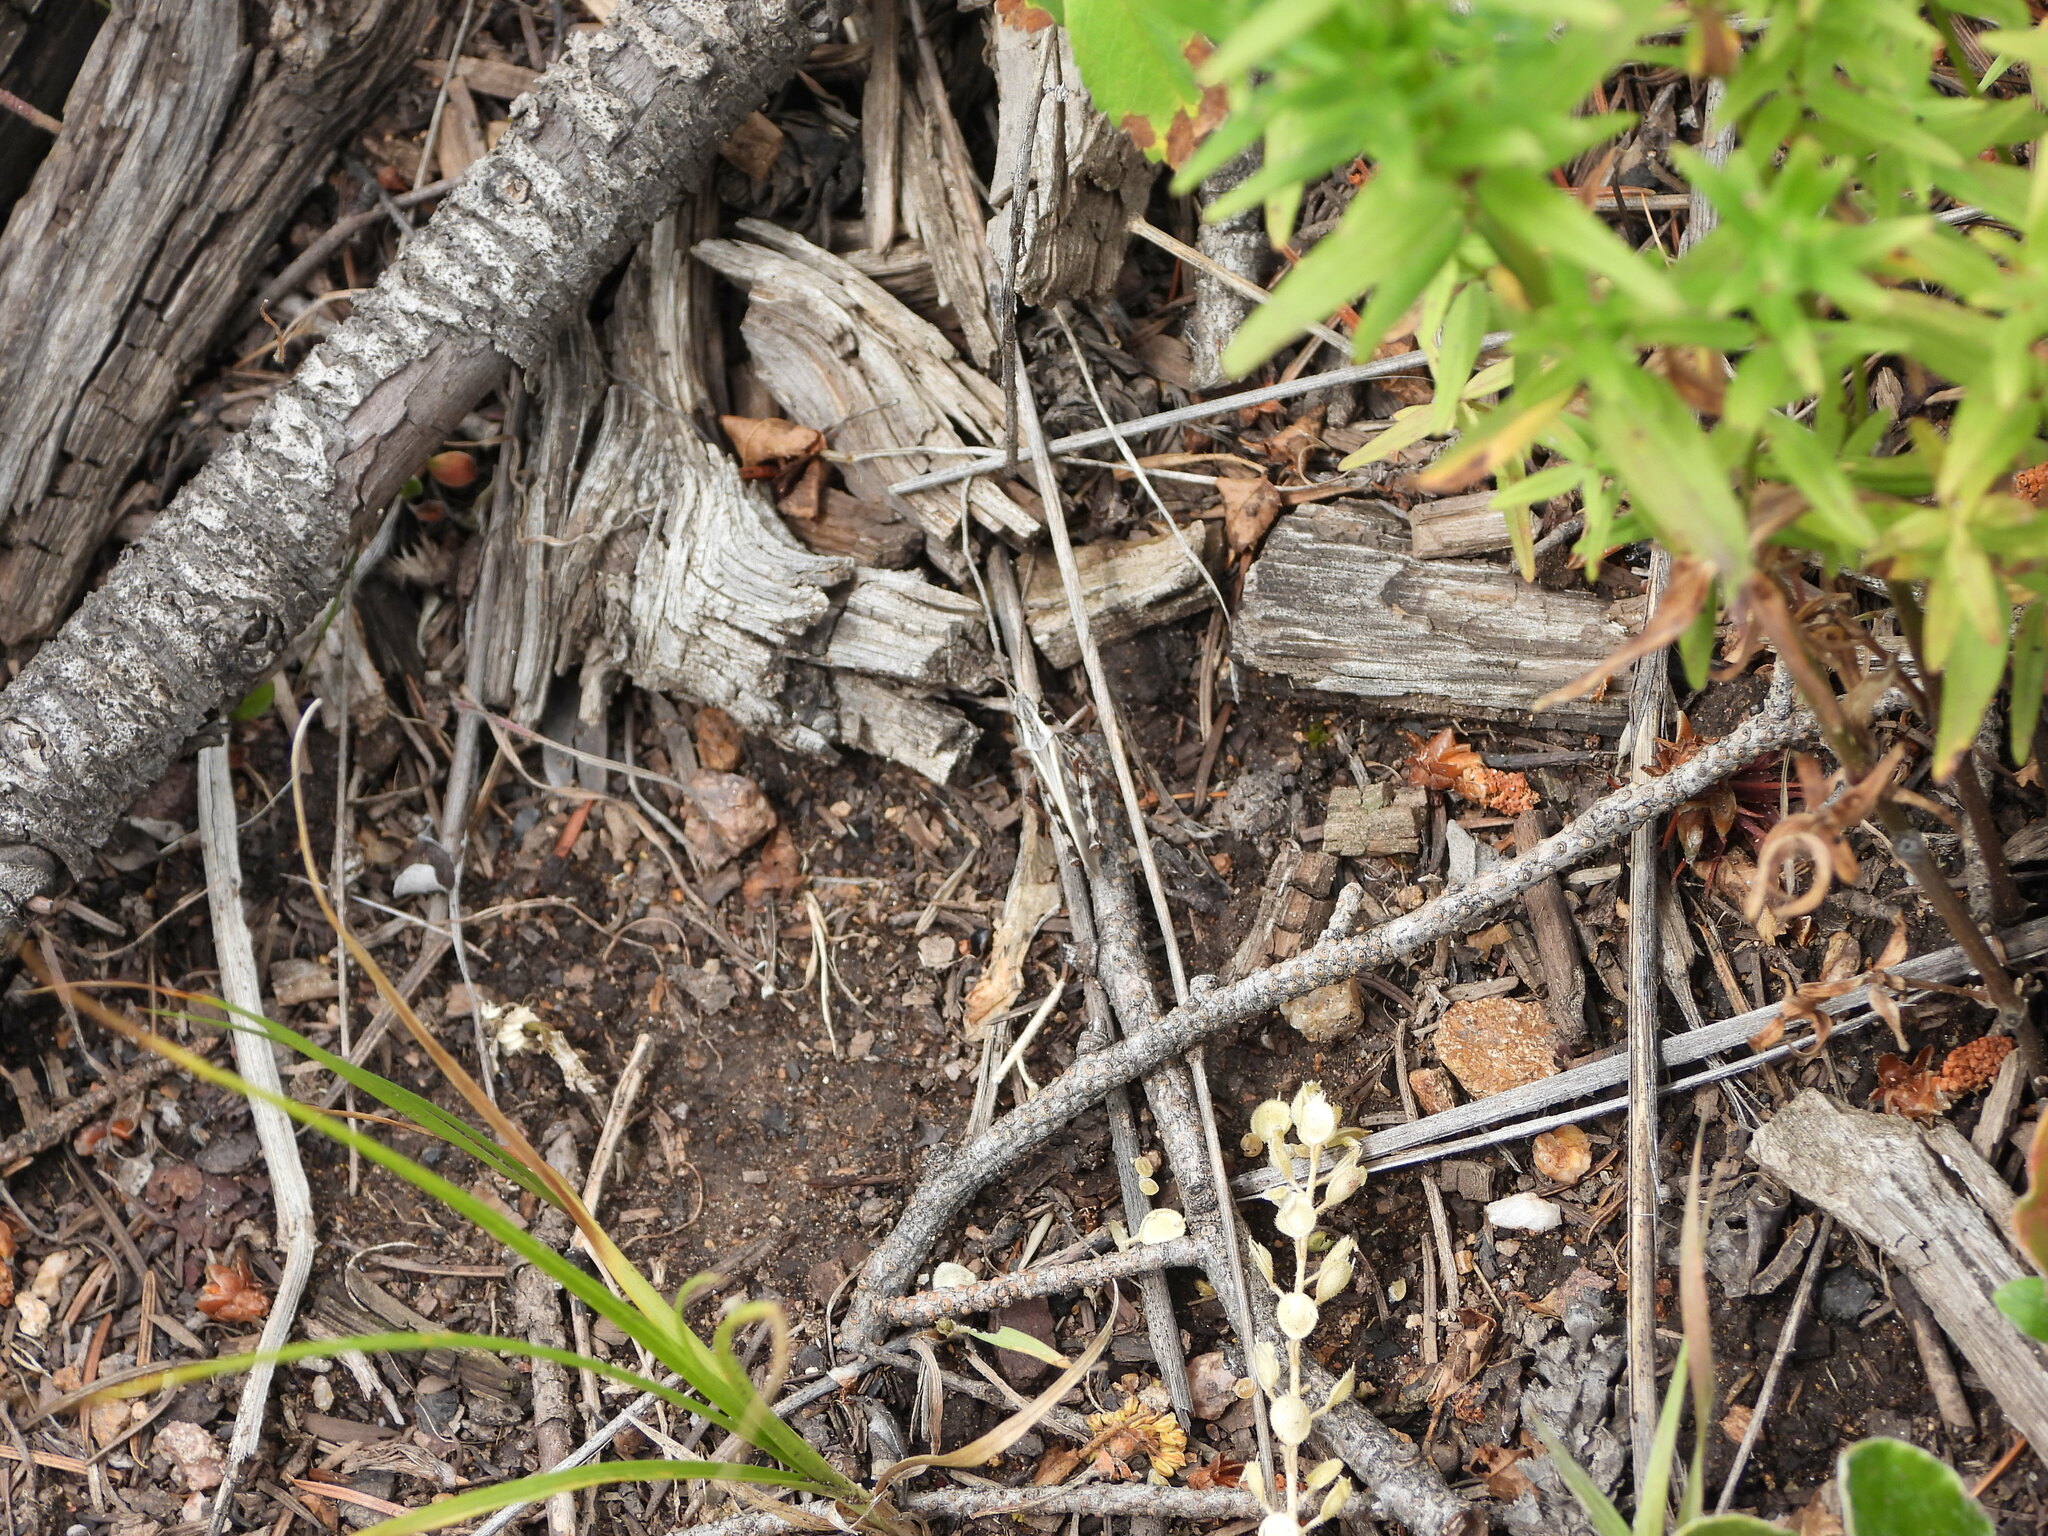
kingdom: Animalia
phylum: Arthropoda
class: Insecta
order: Orthoptera
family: Acrididae
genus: Camnula
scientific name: Camnula pellucida
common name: Clear-winged grasshopper
